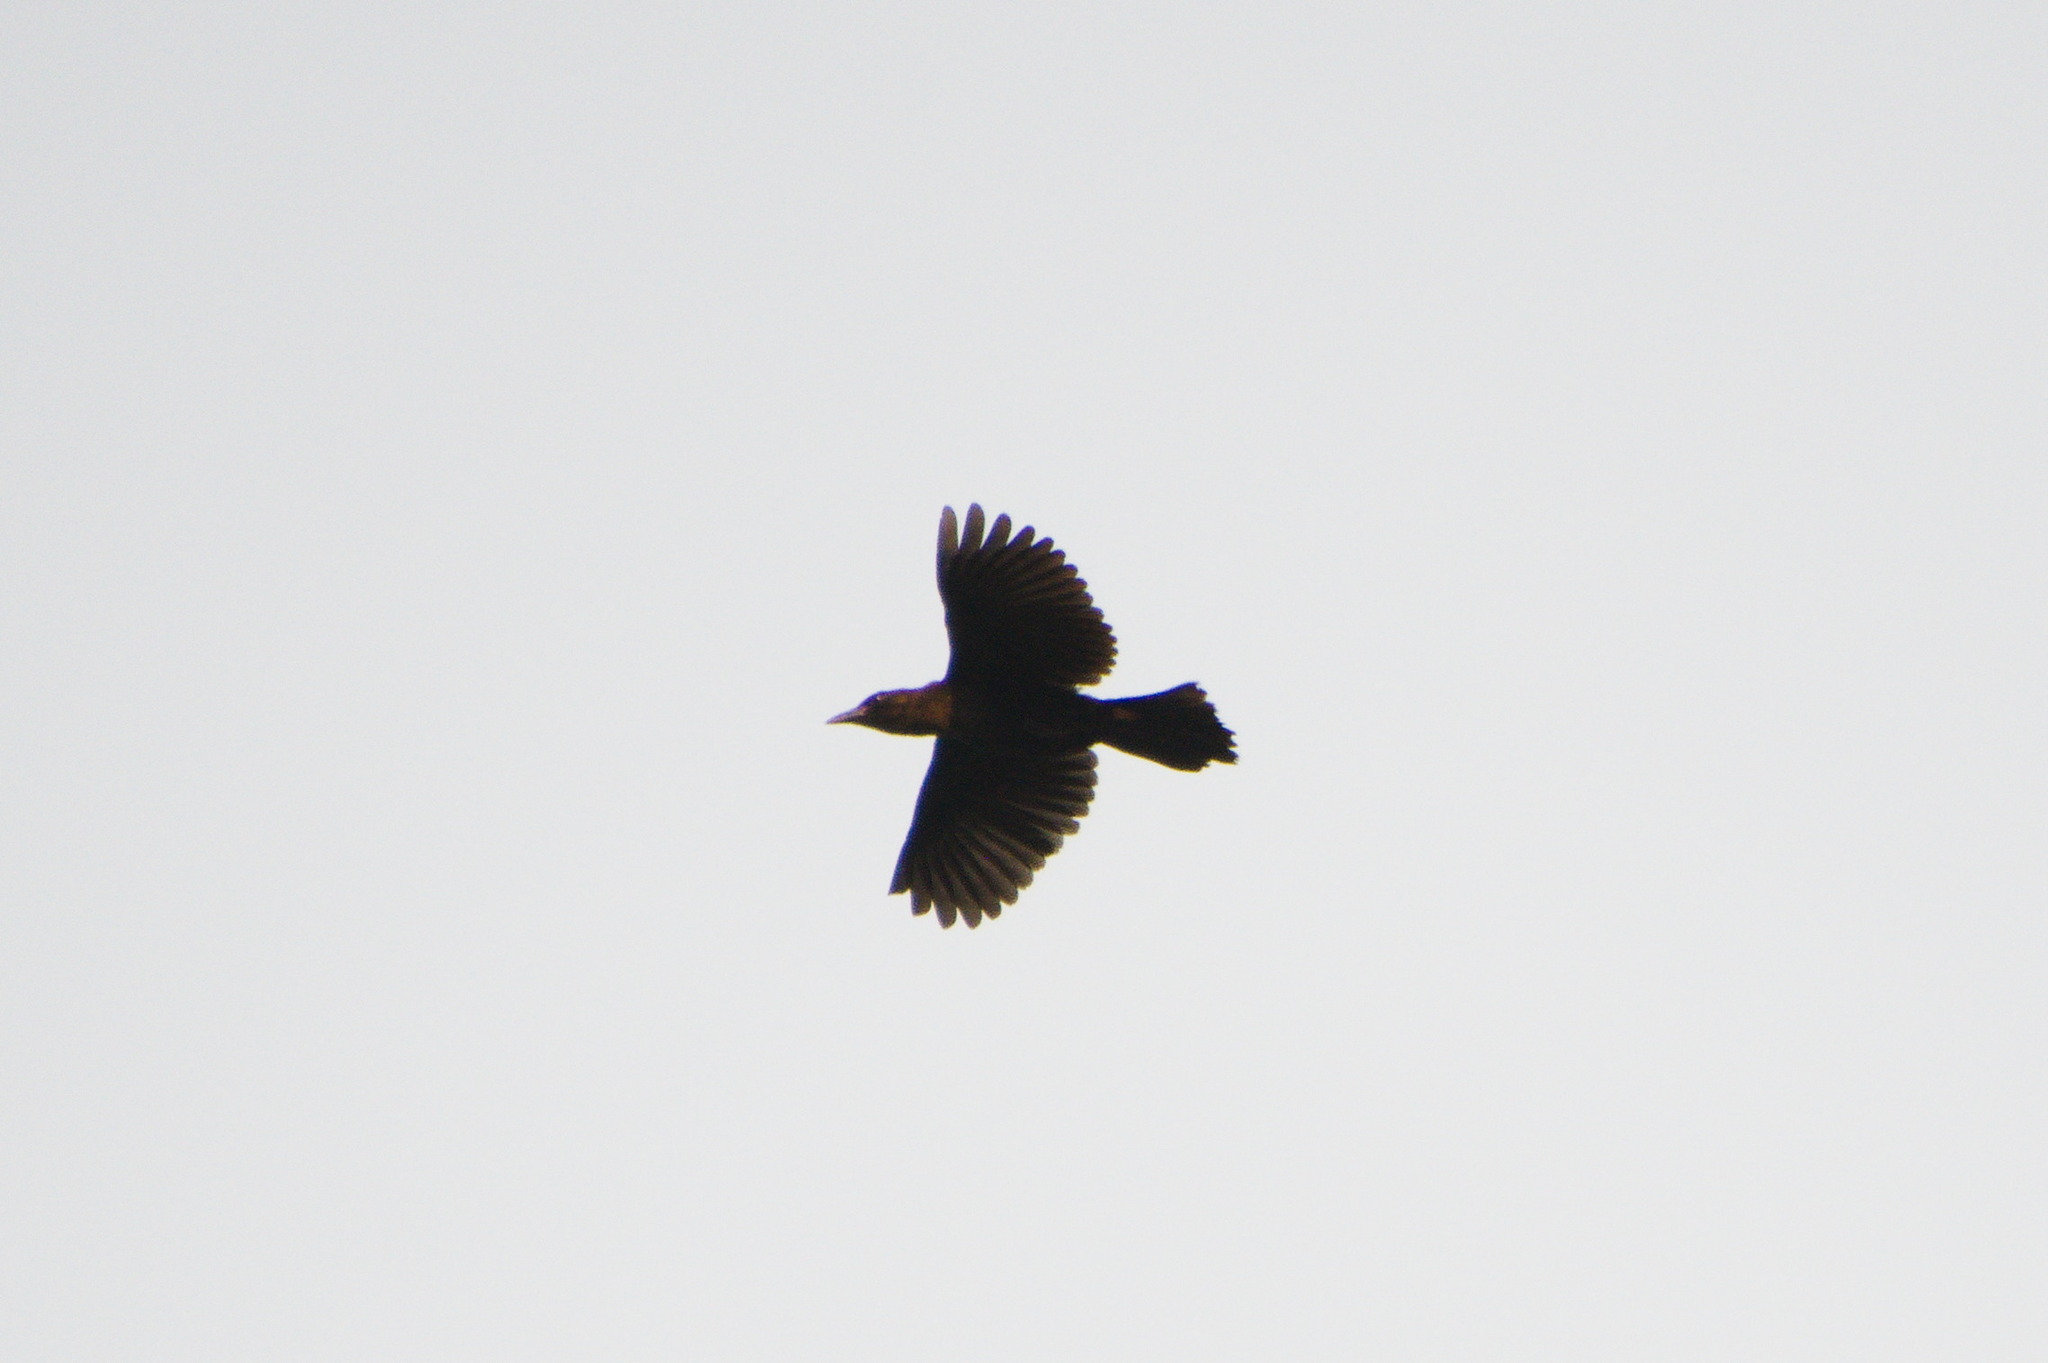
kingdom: Animalia
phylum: Chordata
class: Aves
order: Passeriformes
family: Icteridae
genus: Quiscalus
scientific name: Quiscalus mexicanus
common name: Great-tailed grackle
